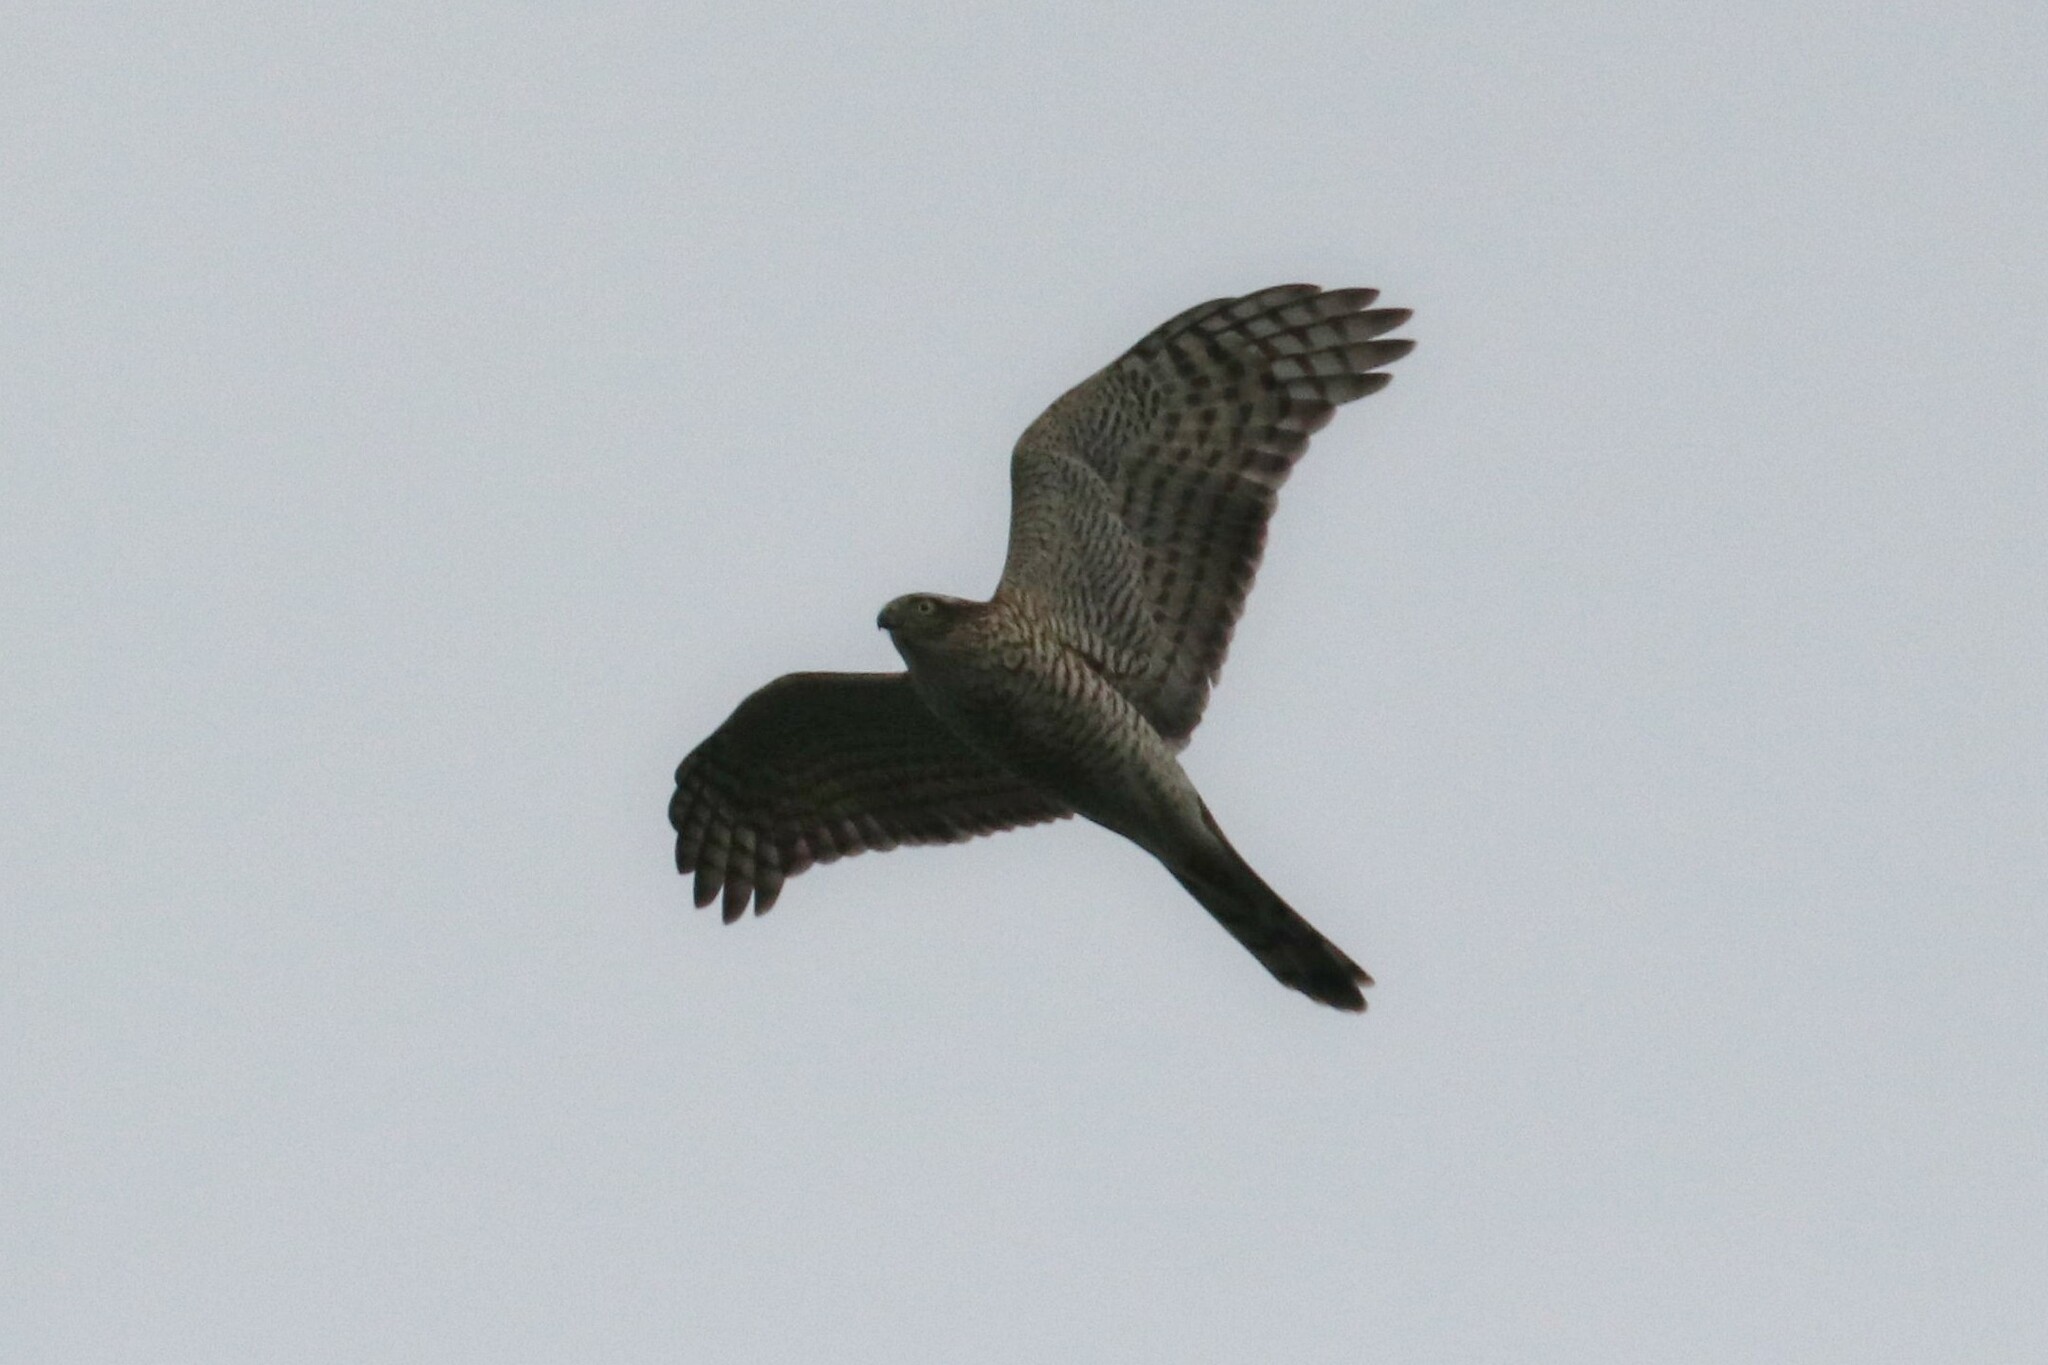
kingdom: Animalia
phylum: Chordata
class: Aves
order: Accipitriformes
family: Accipitridae
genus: Accipiter
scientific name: Accipiter nisus
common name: Eurasian sparrowhawk
